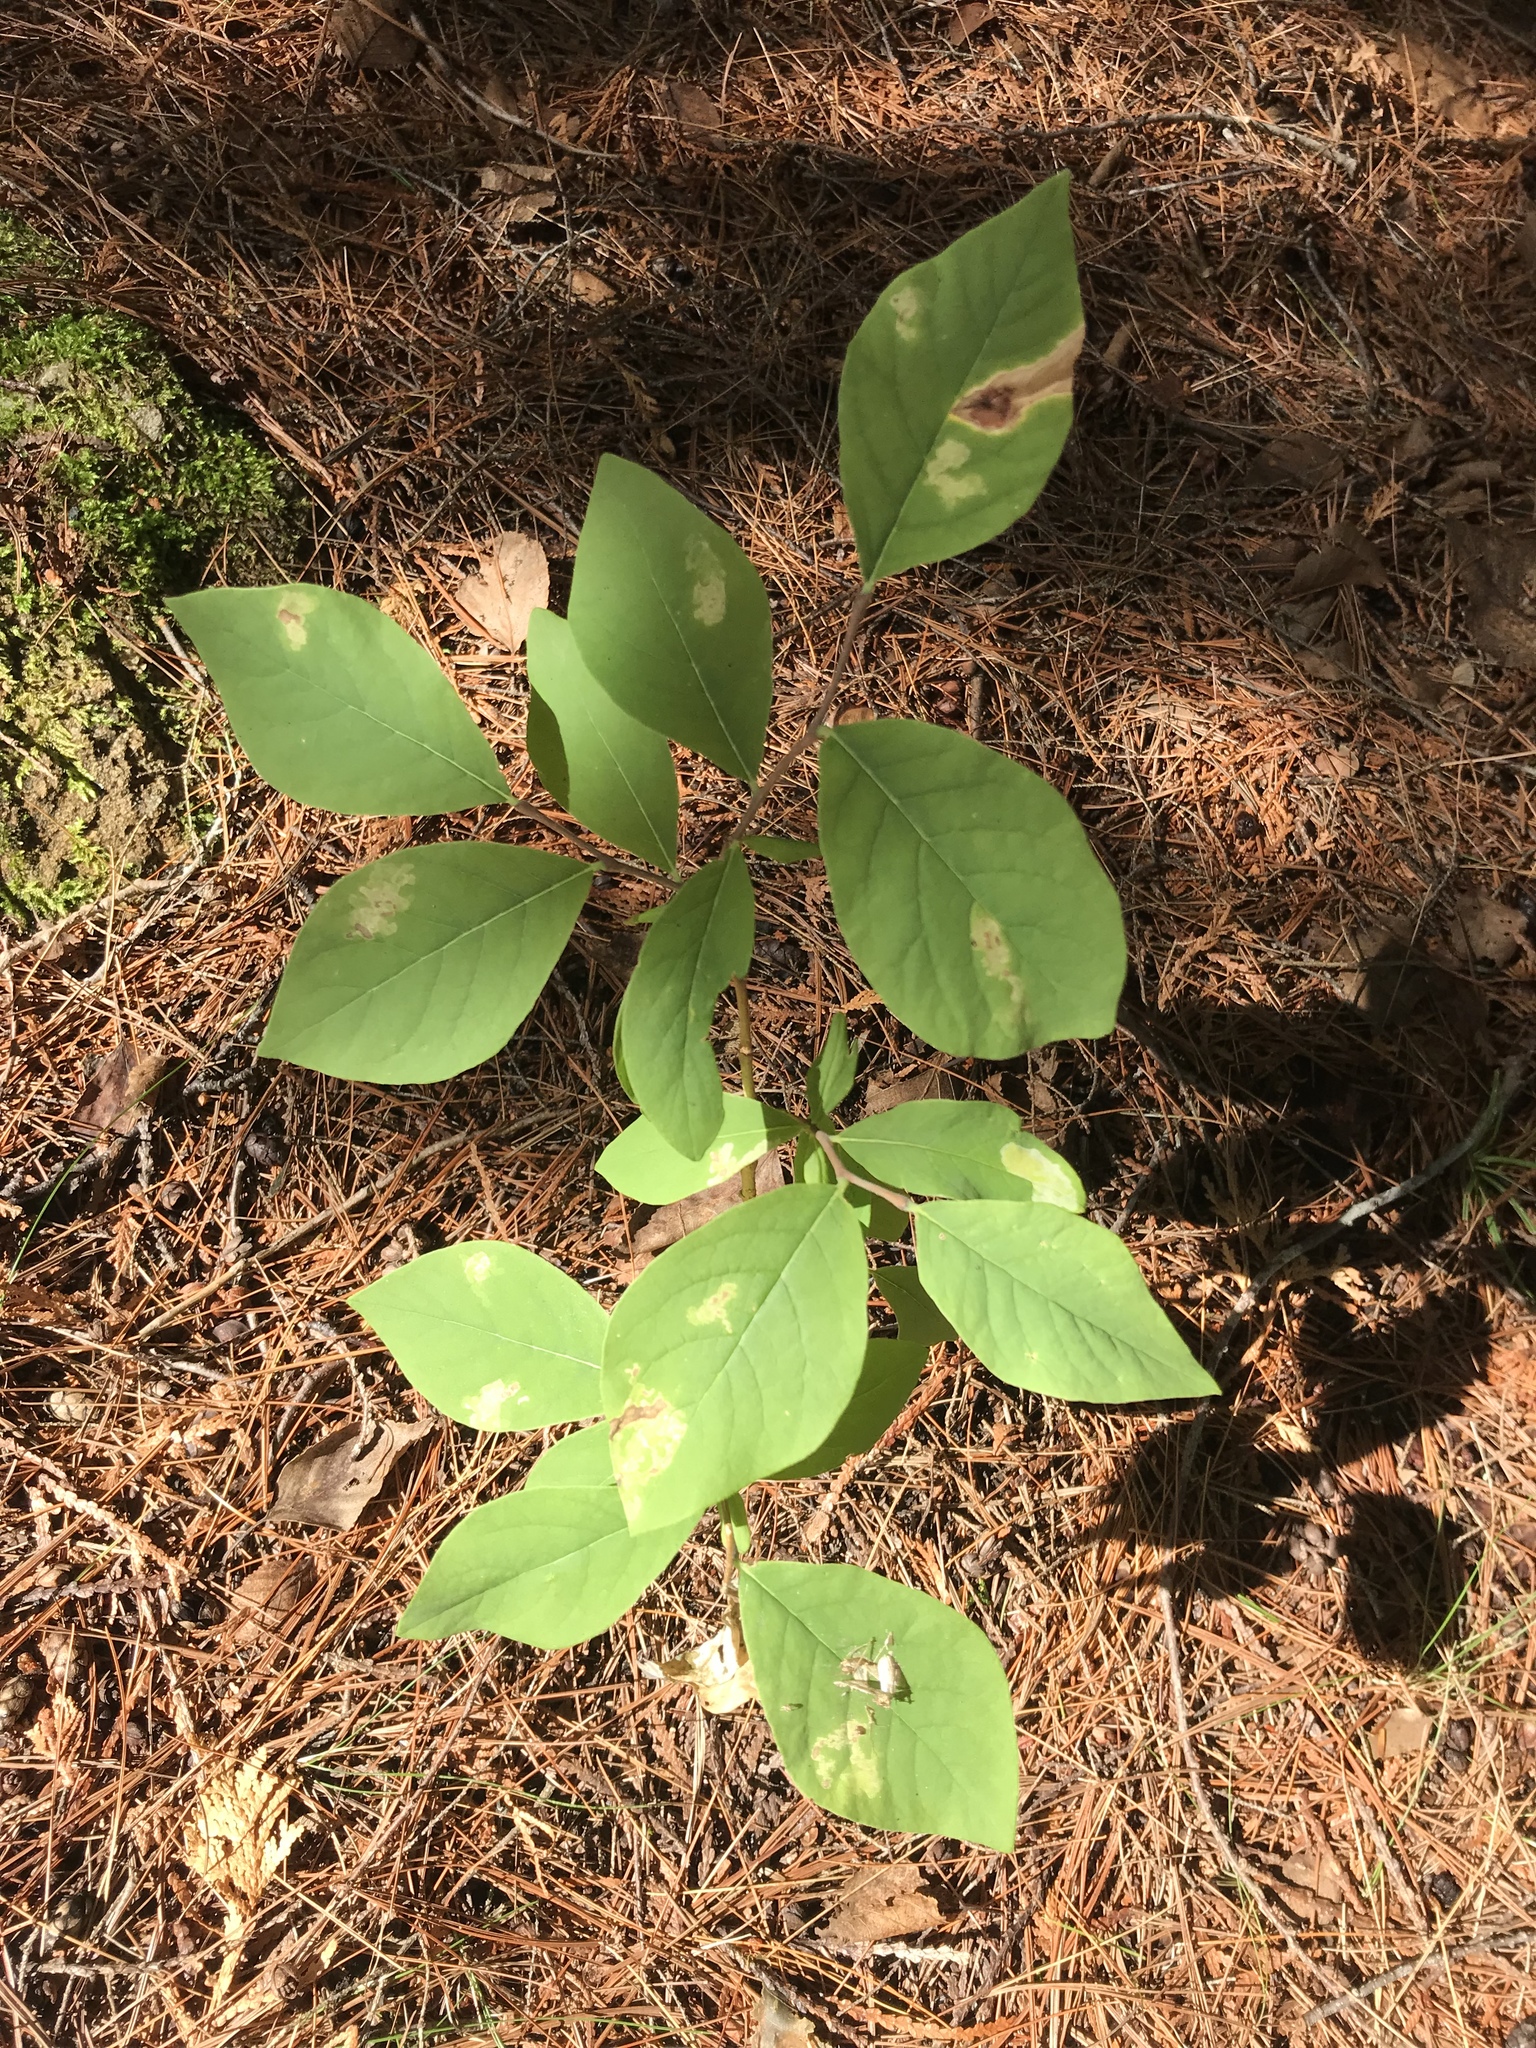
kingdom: Plantae
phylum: Tracheophyta
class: Magnoliopsida
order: Malvales
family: Thymelaeaceae
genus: Dirca
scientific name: Dirca palustris
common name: Leatherwood
